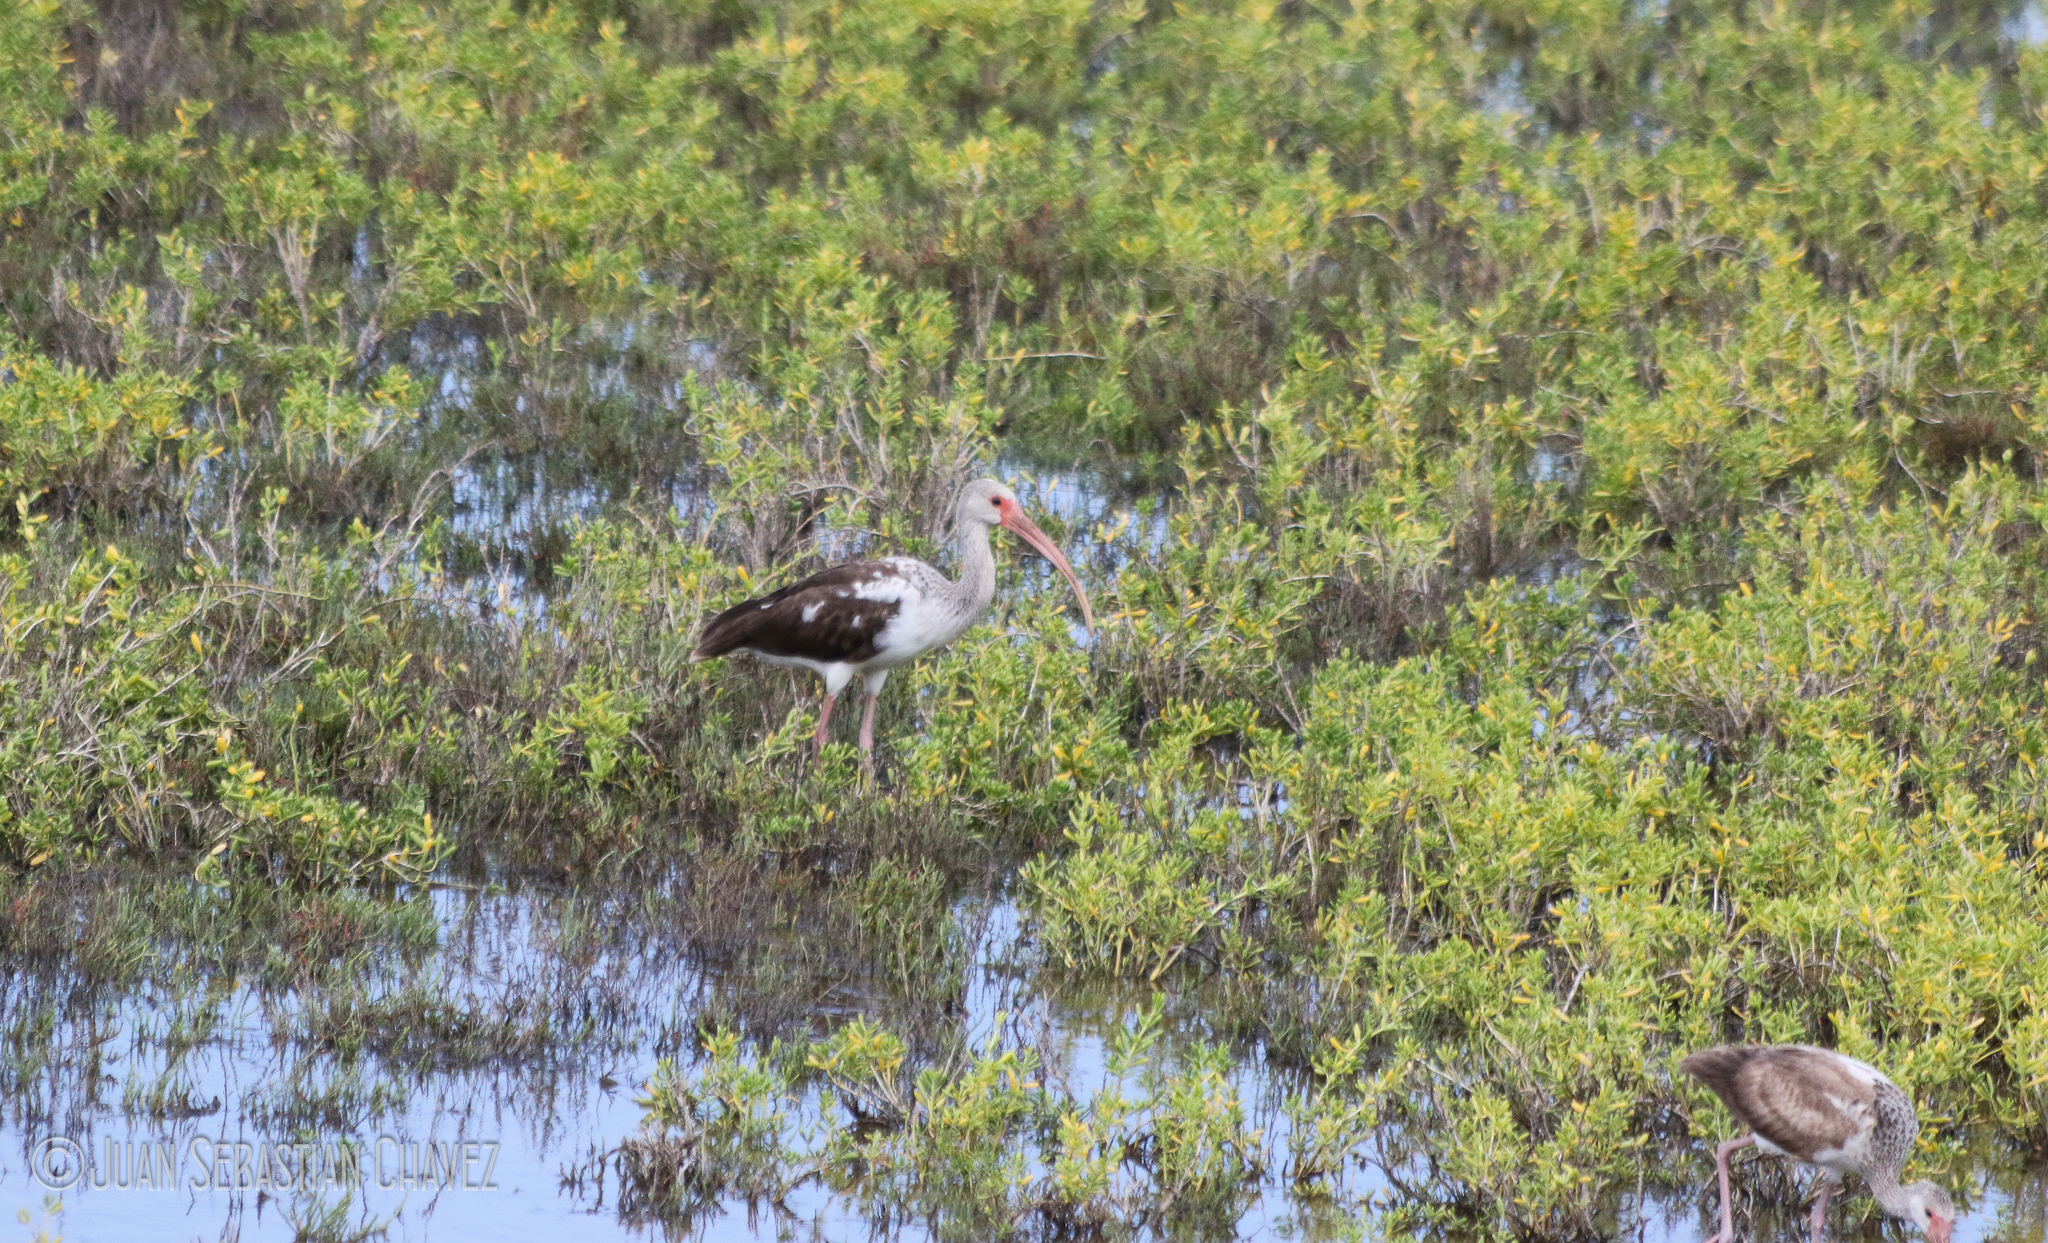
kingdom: Animalia
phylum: Chordata
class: Aves
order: Pelecaniformes
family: Threskiornithidae
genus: Eudocimus
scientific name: Eudocimus albus
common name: White ibis
